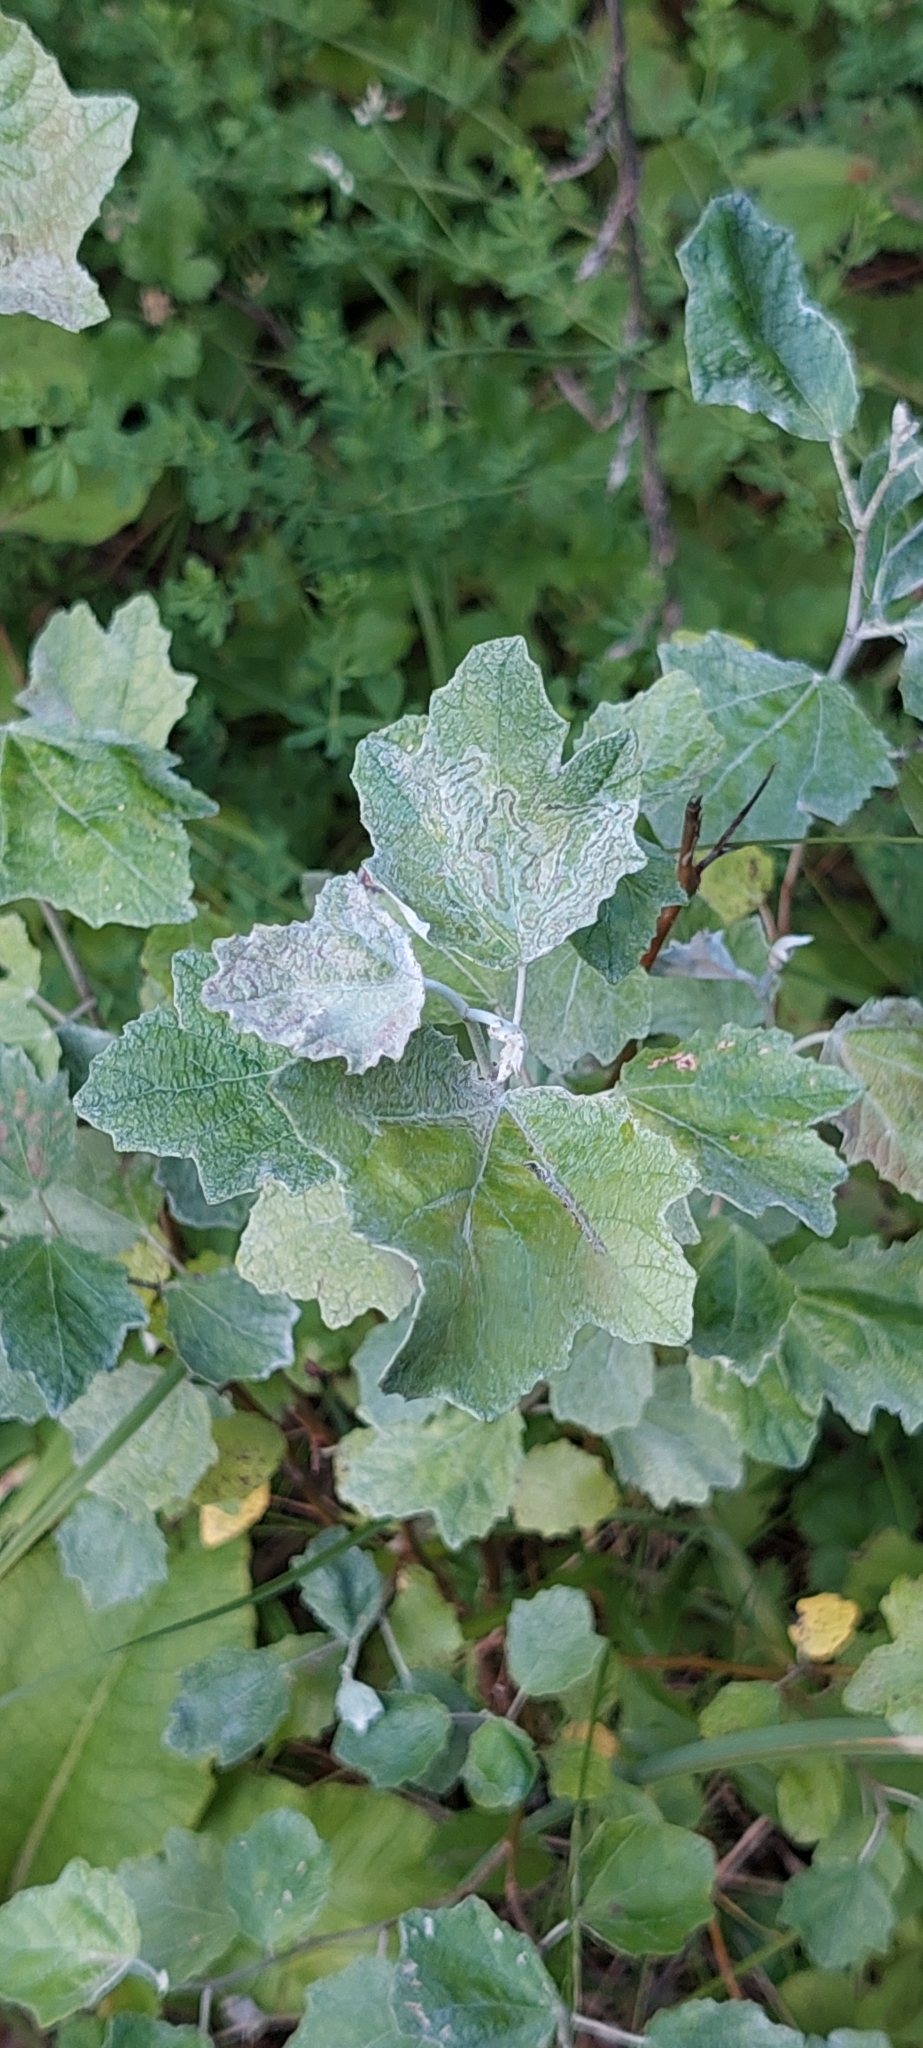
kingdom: Plantae
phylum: Tracheophyta
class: Magnoliopsida
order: Malpighiales
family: Salicaceae
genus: Populus
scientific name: Populus alba
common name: White poplar
